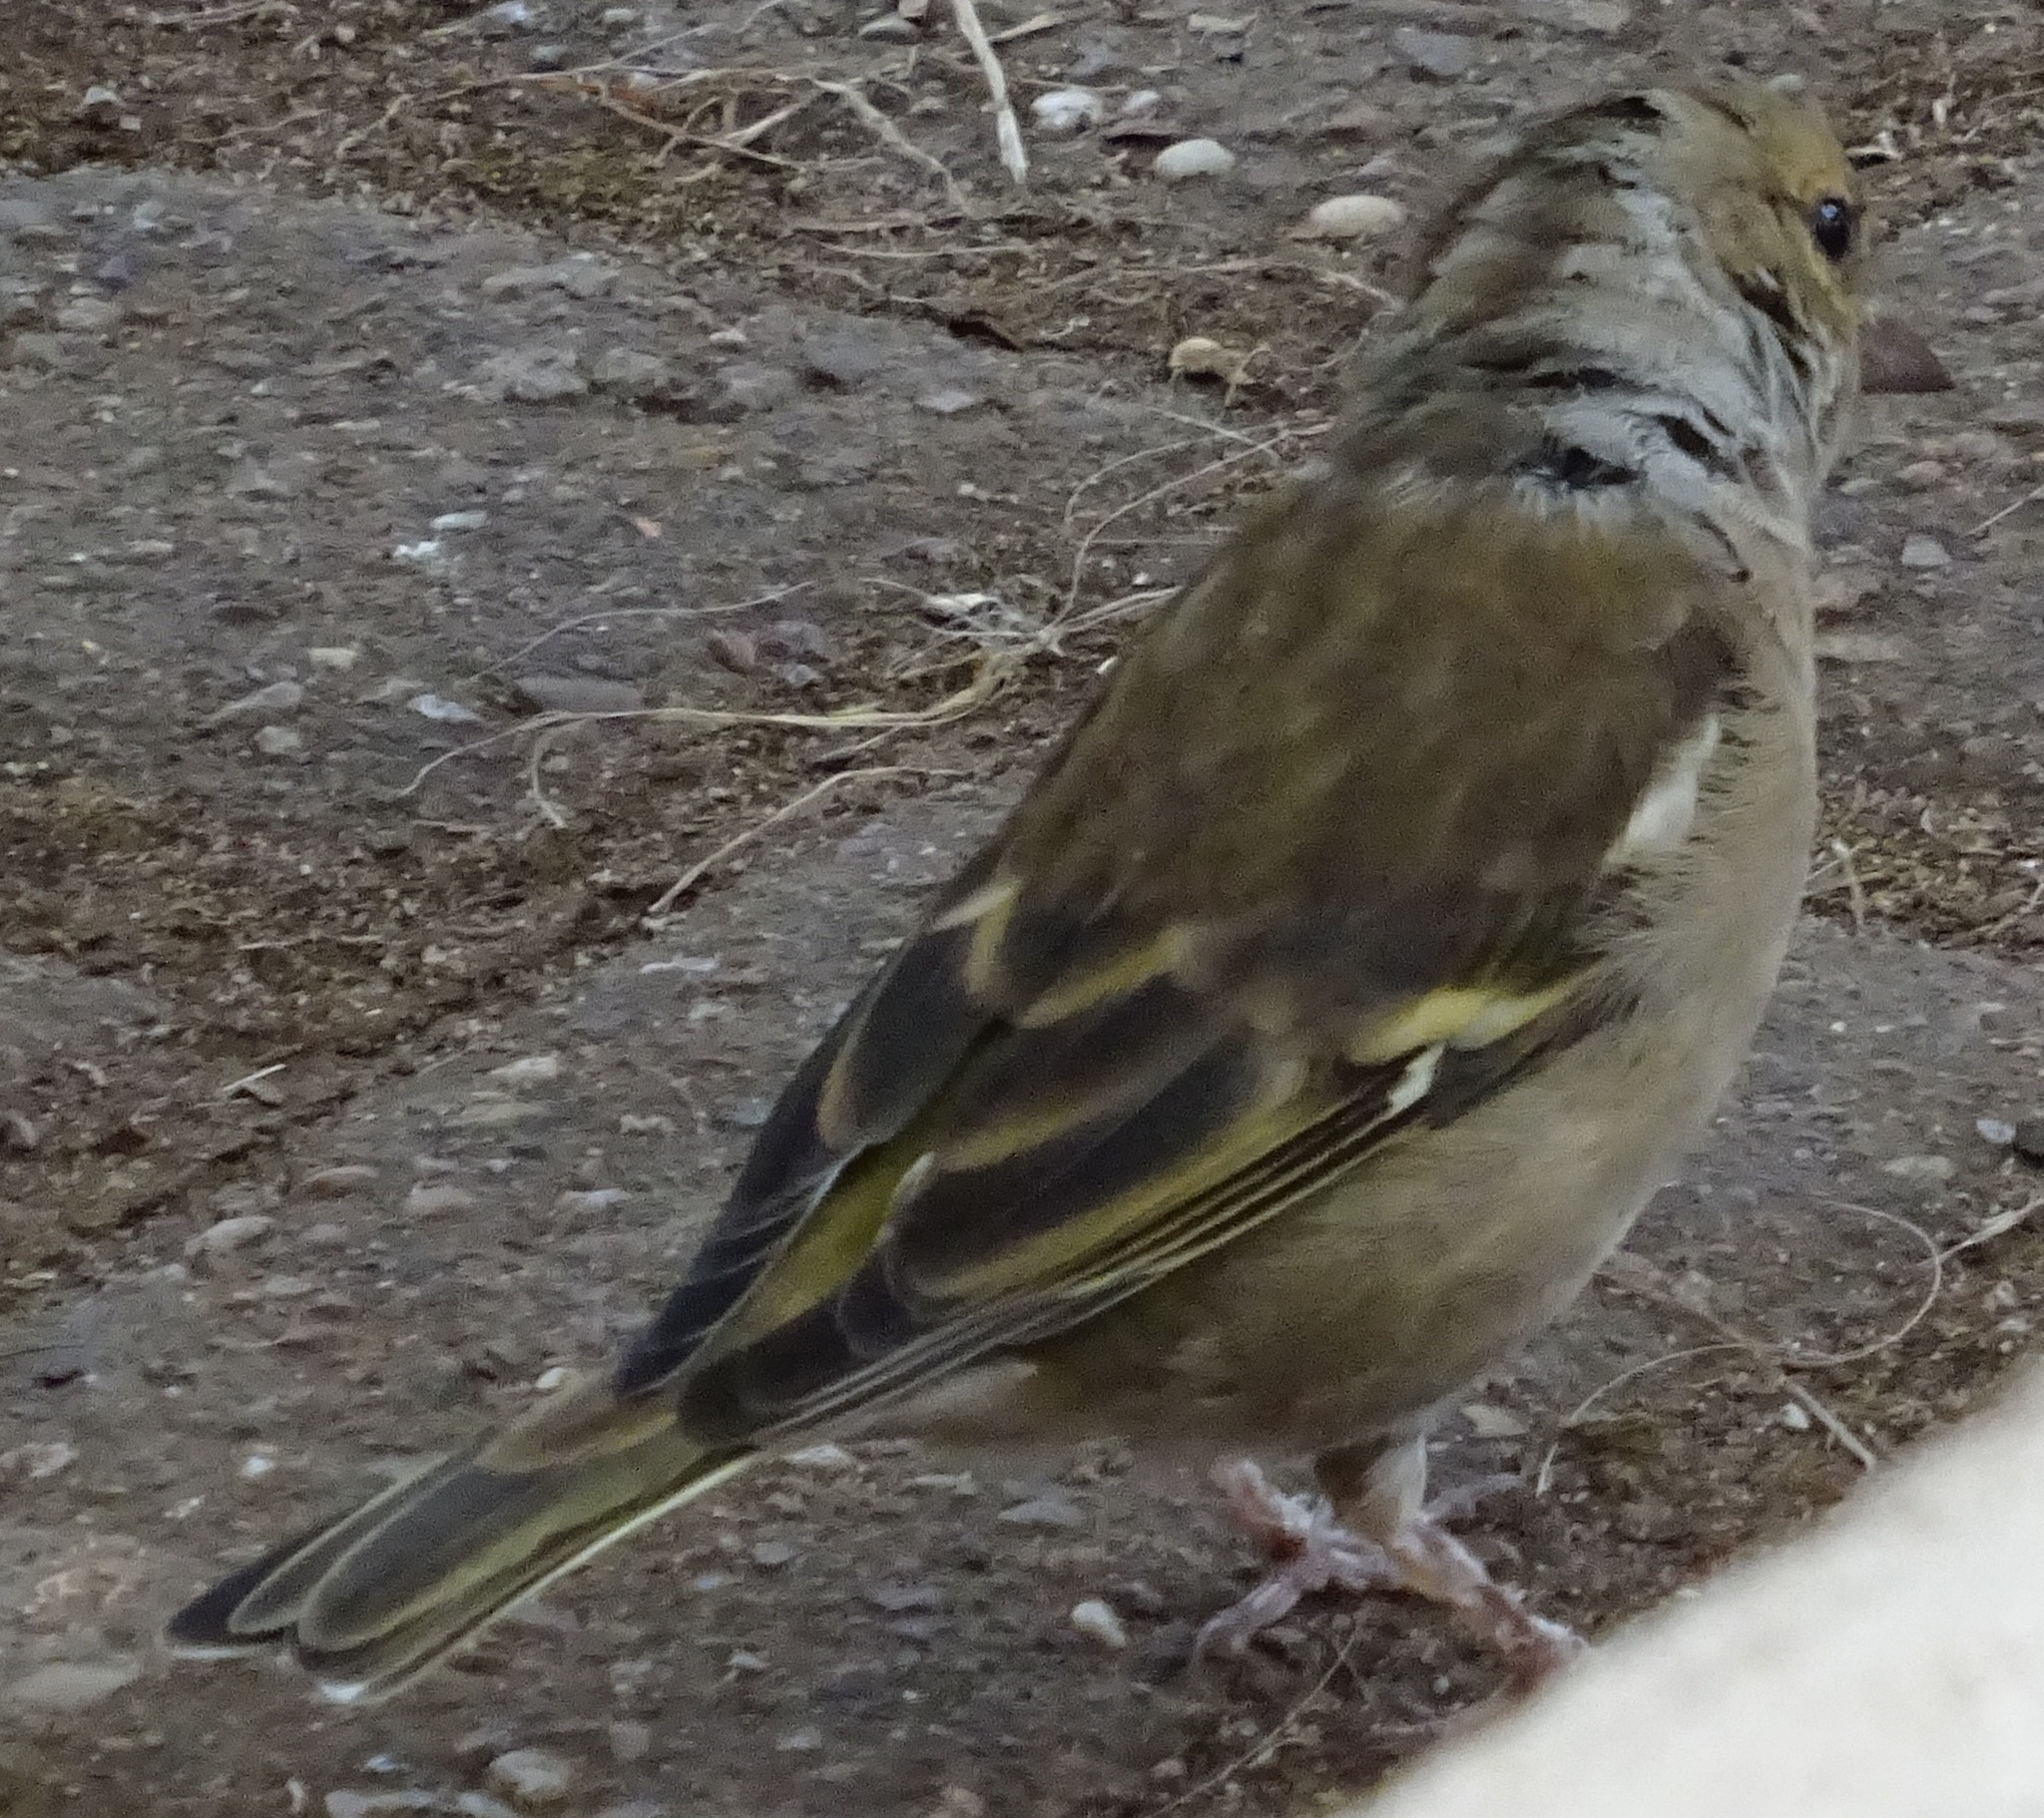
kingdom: Animalia
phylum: Chordata
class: Aves
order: Passeriformes
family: Fringillidae
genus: Fringilla
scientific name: Fringilla coelebs
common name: Common chaffinch
